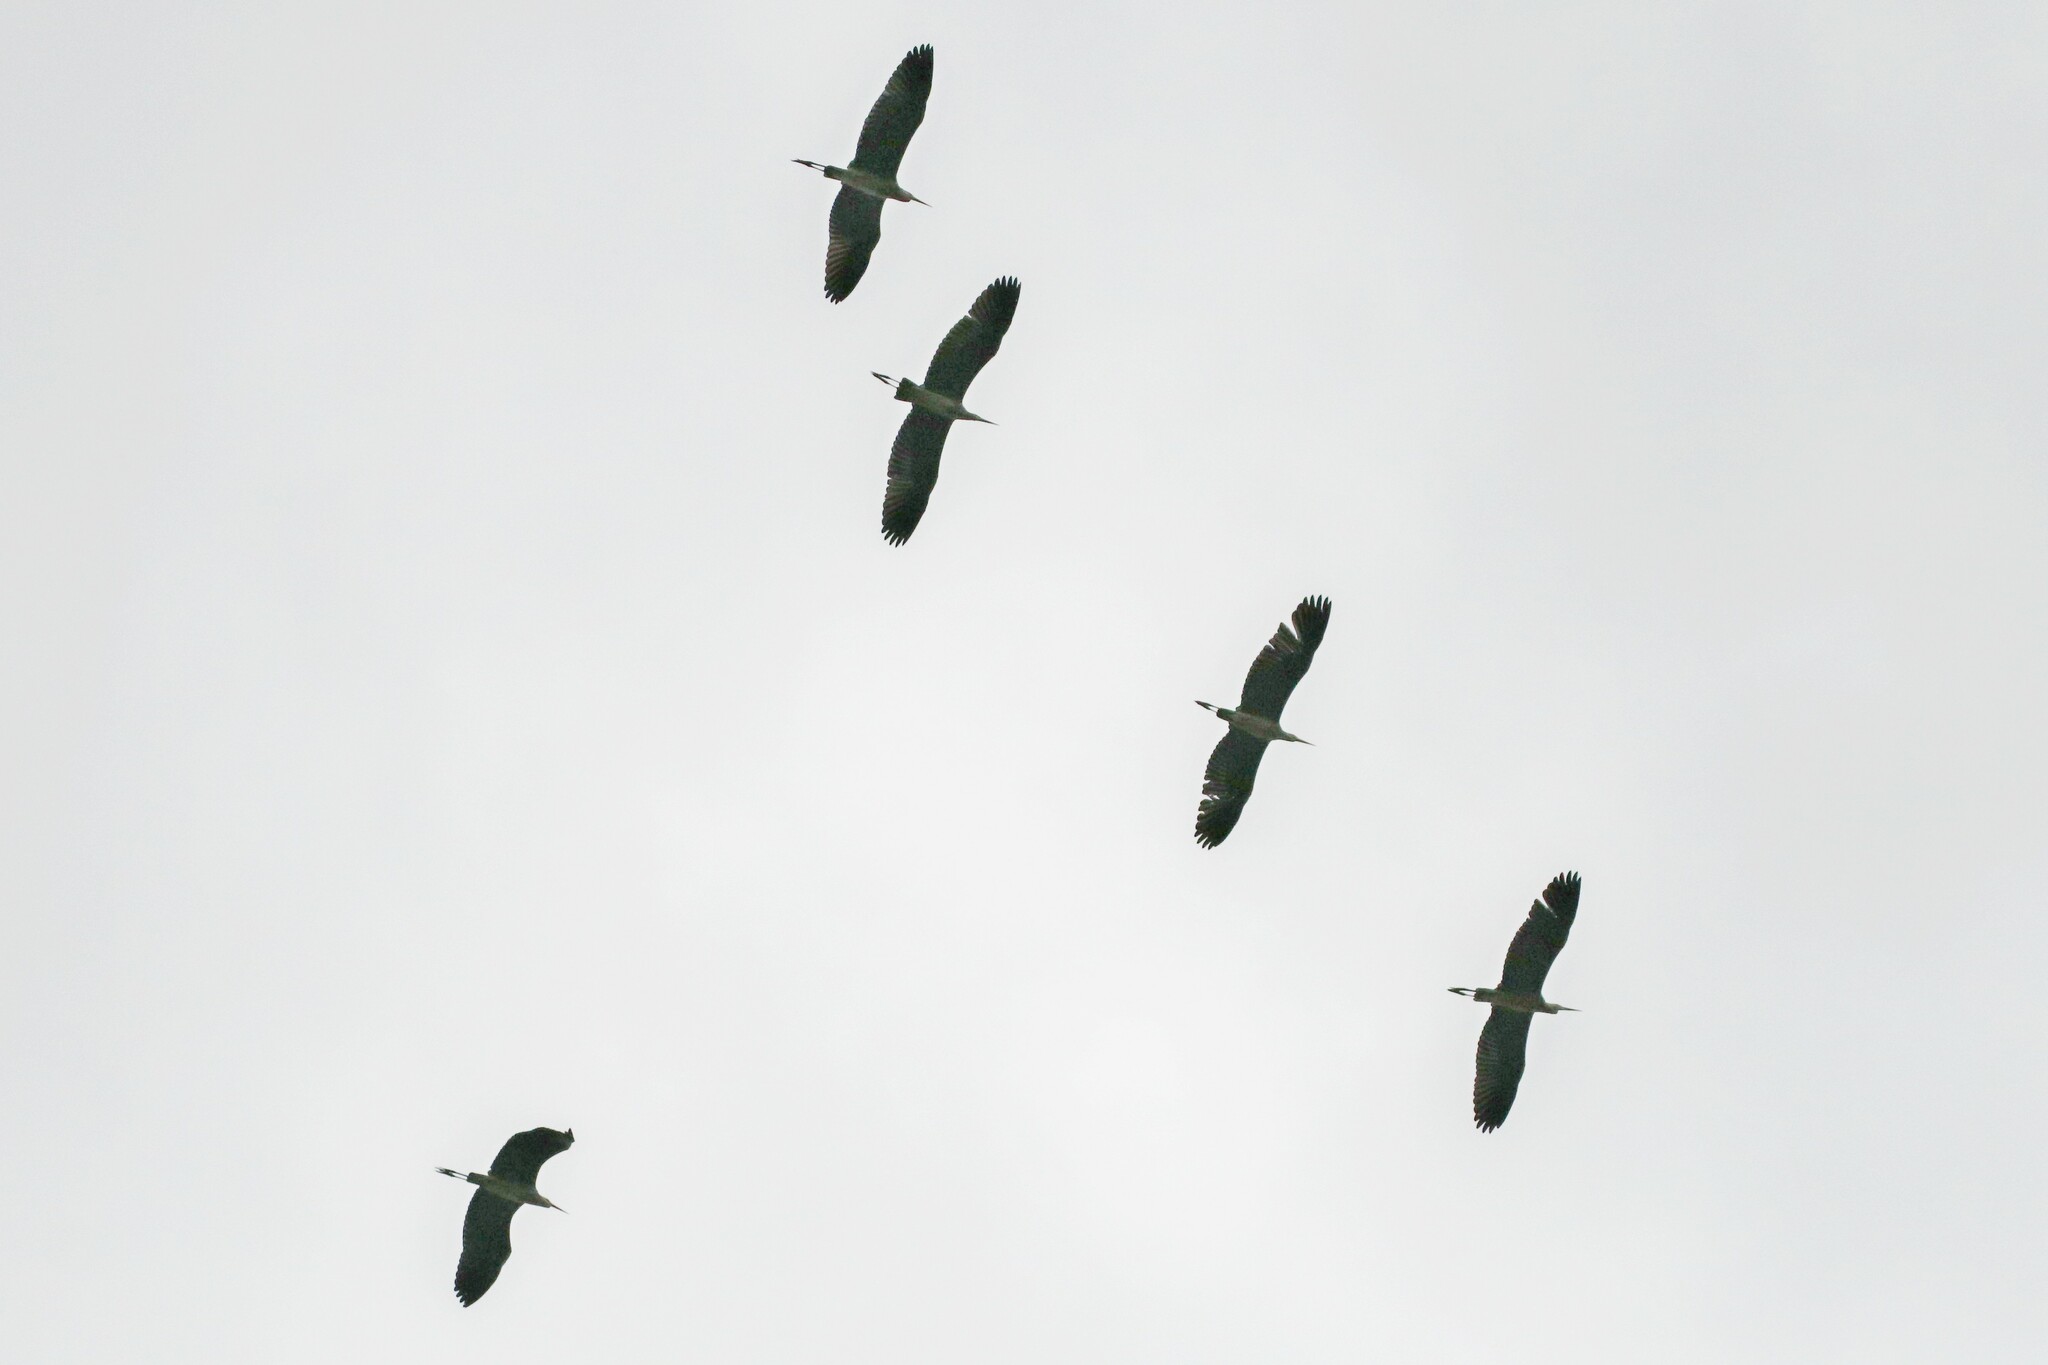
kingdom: Animalia
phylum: Chordata
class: Aves
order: Pelecaniformes
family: Ardeidae
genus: Ardea
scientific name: Ardea cinerea
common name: Grey heron
